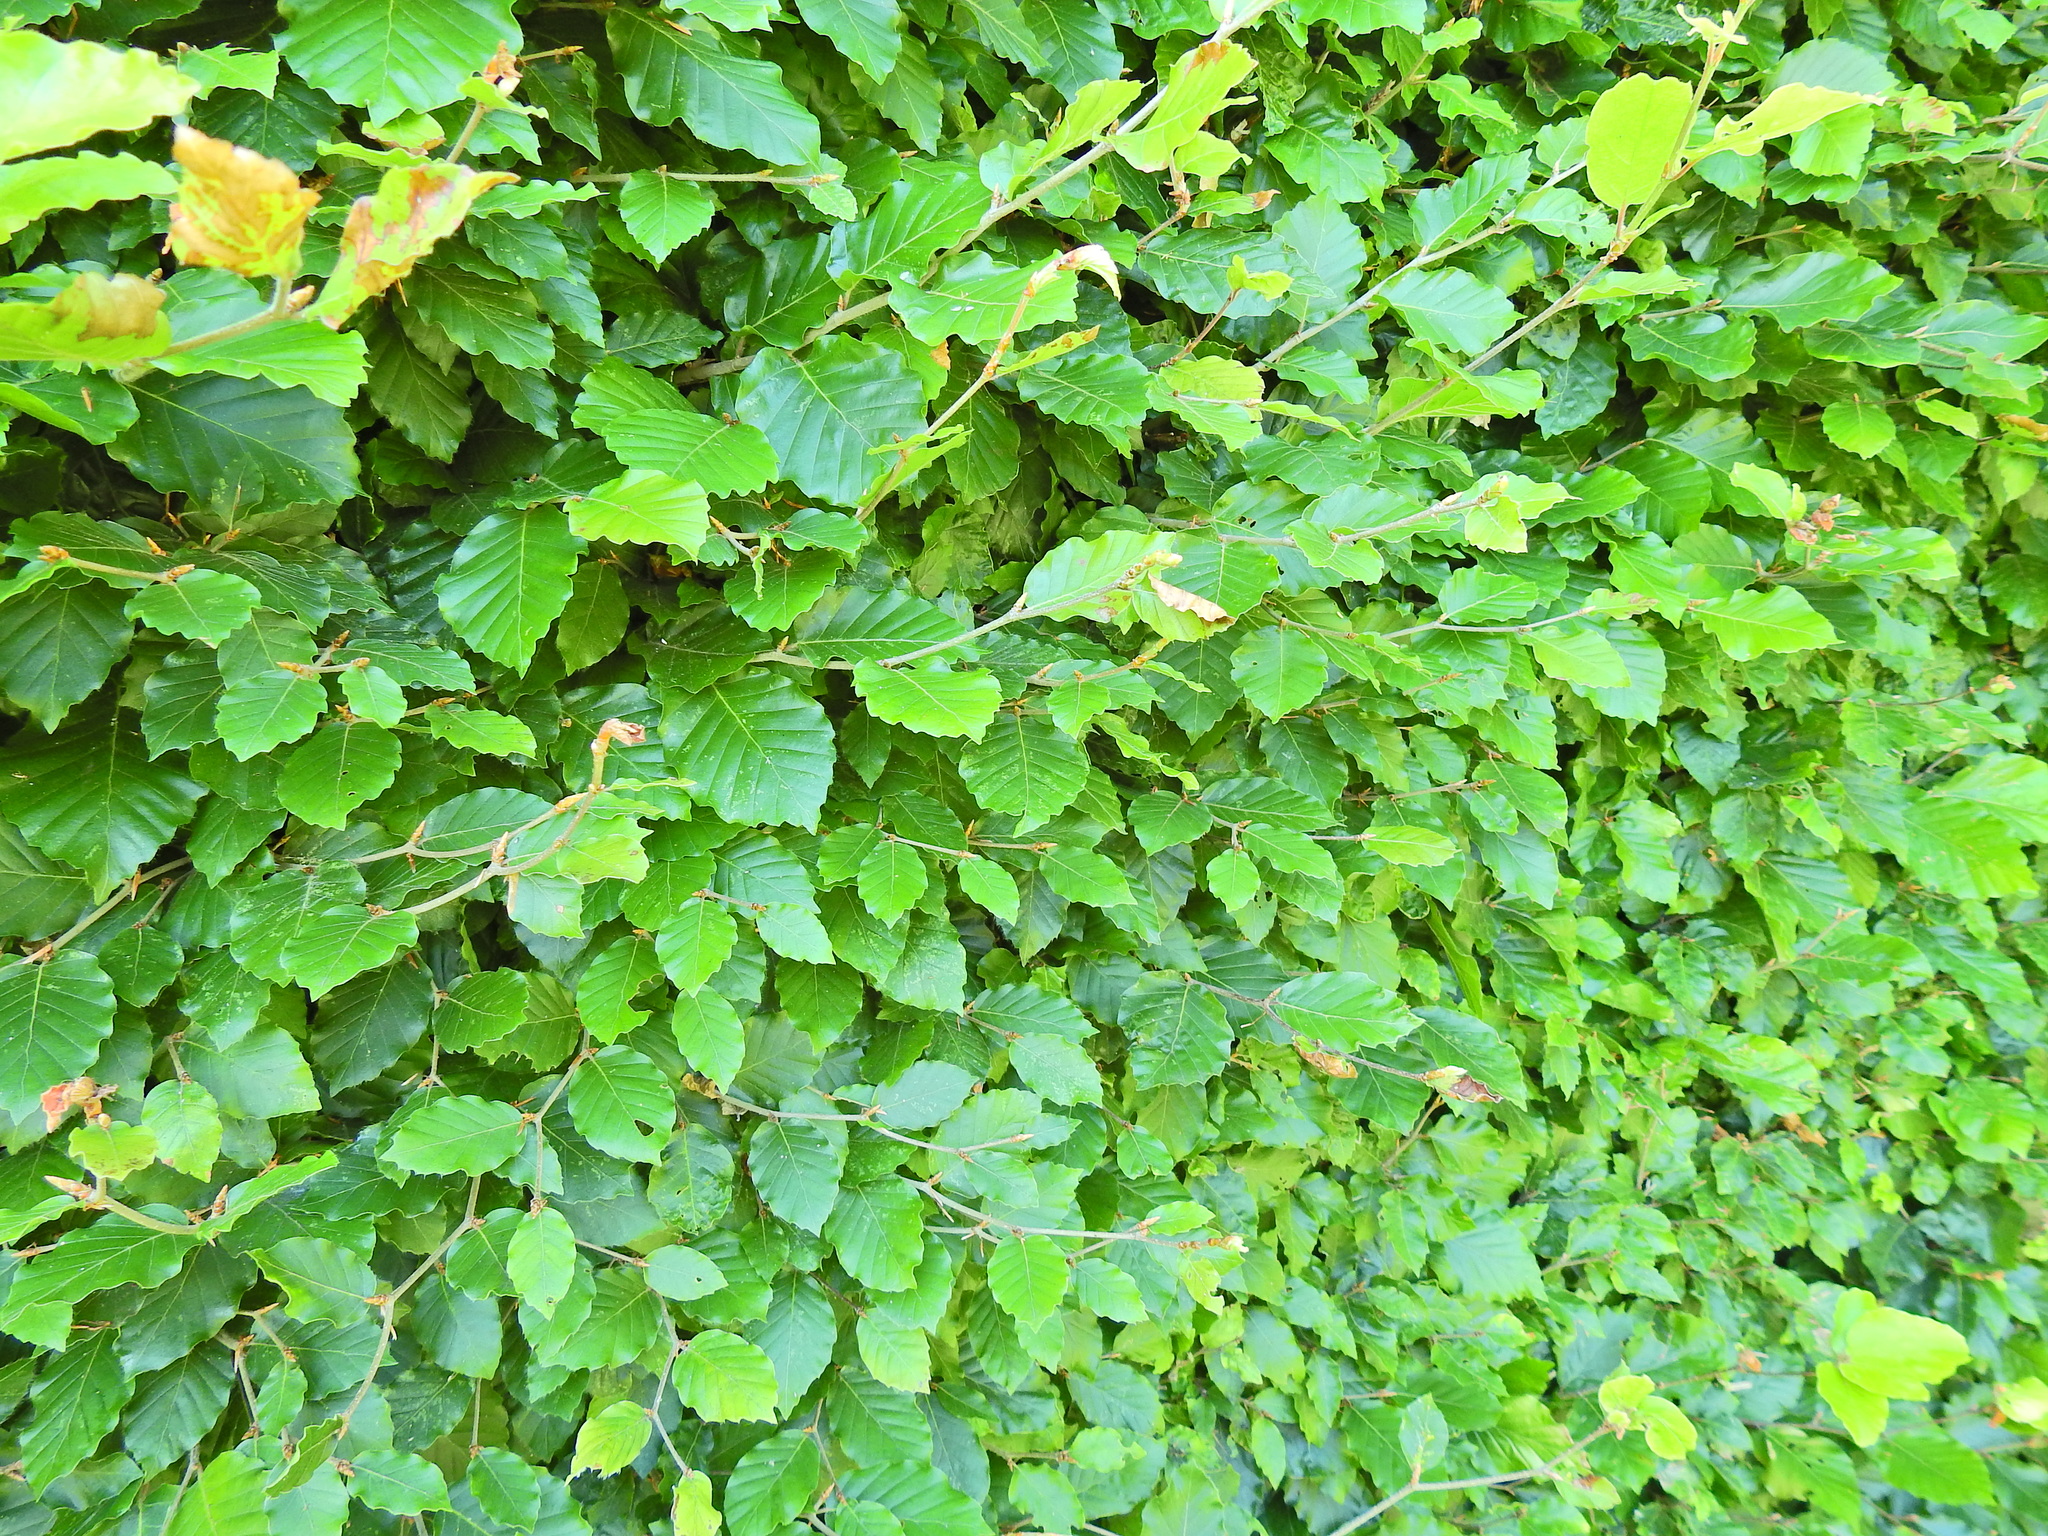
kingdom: Plantae
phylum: Tracheophyta
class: Magnoliopsida
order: Fagales
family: Fagaceae
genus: Fagus
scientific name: Fagus sylvatica
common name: Beech
